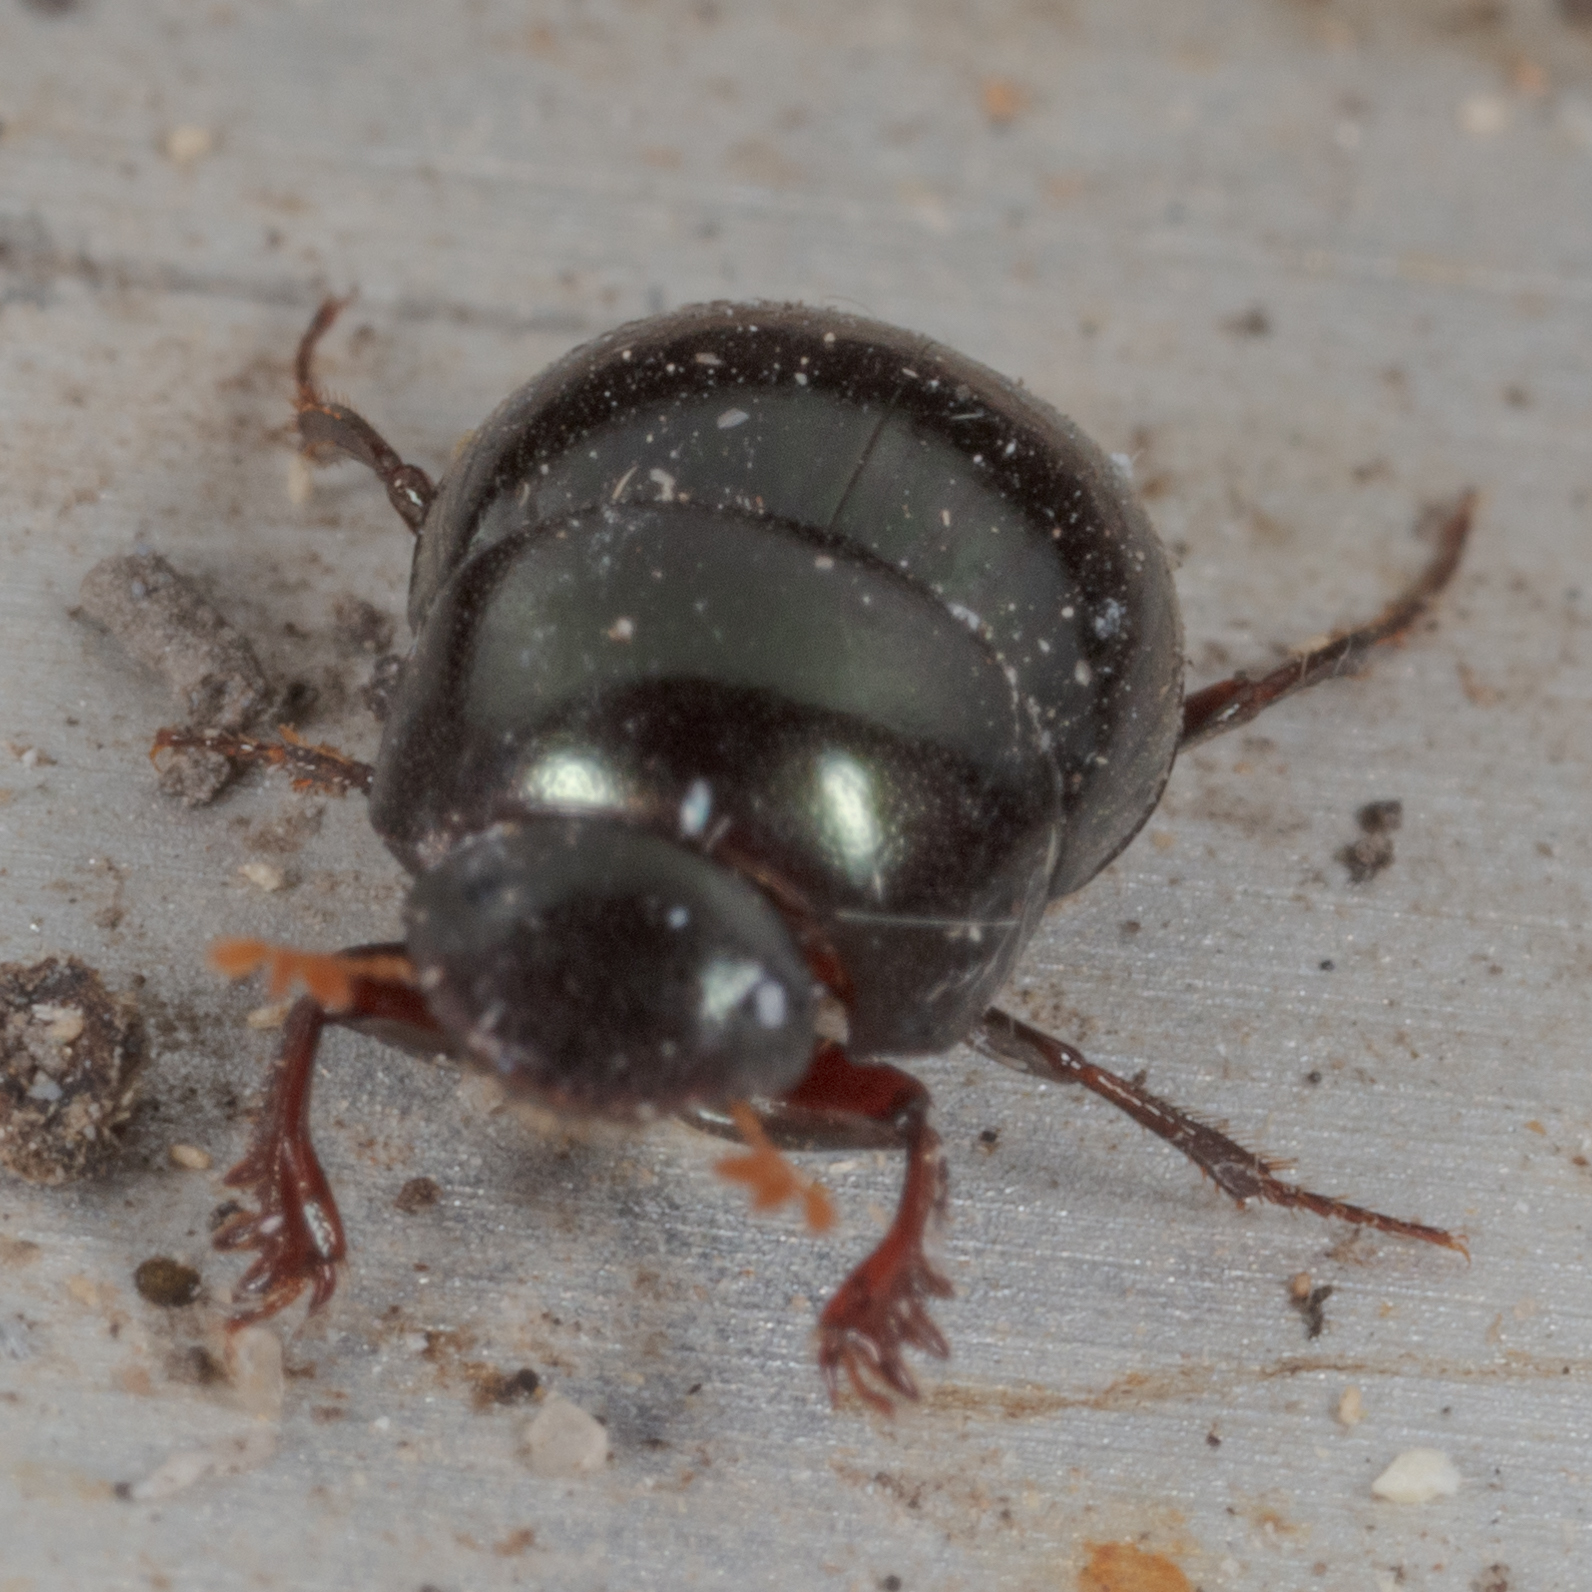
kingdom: Animalia
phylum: Arthropoda
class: Insecta
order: Coleoptera
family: Scarabaeidae
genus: Pseudocanthon
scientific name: Pseudocanthon perplexus
